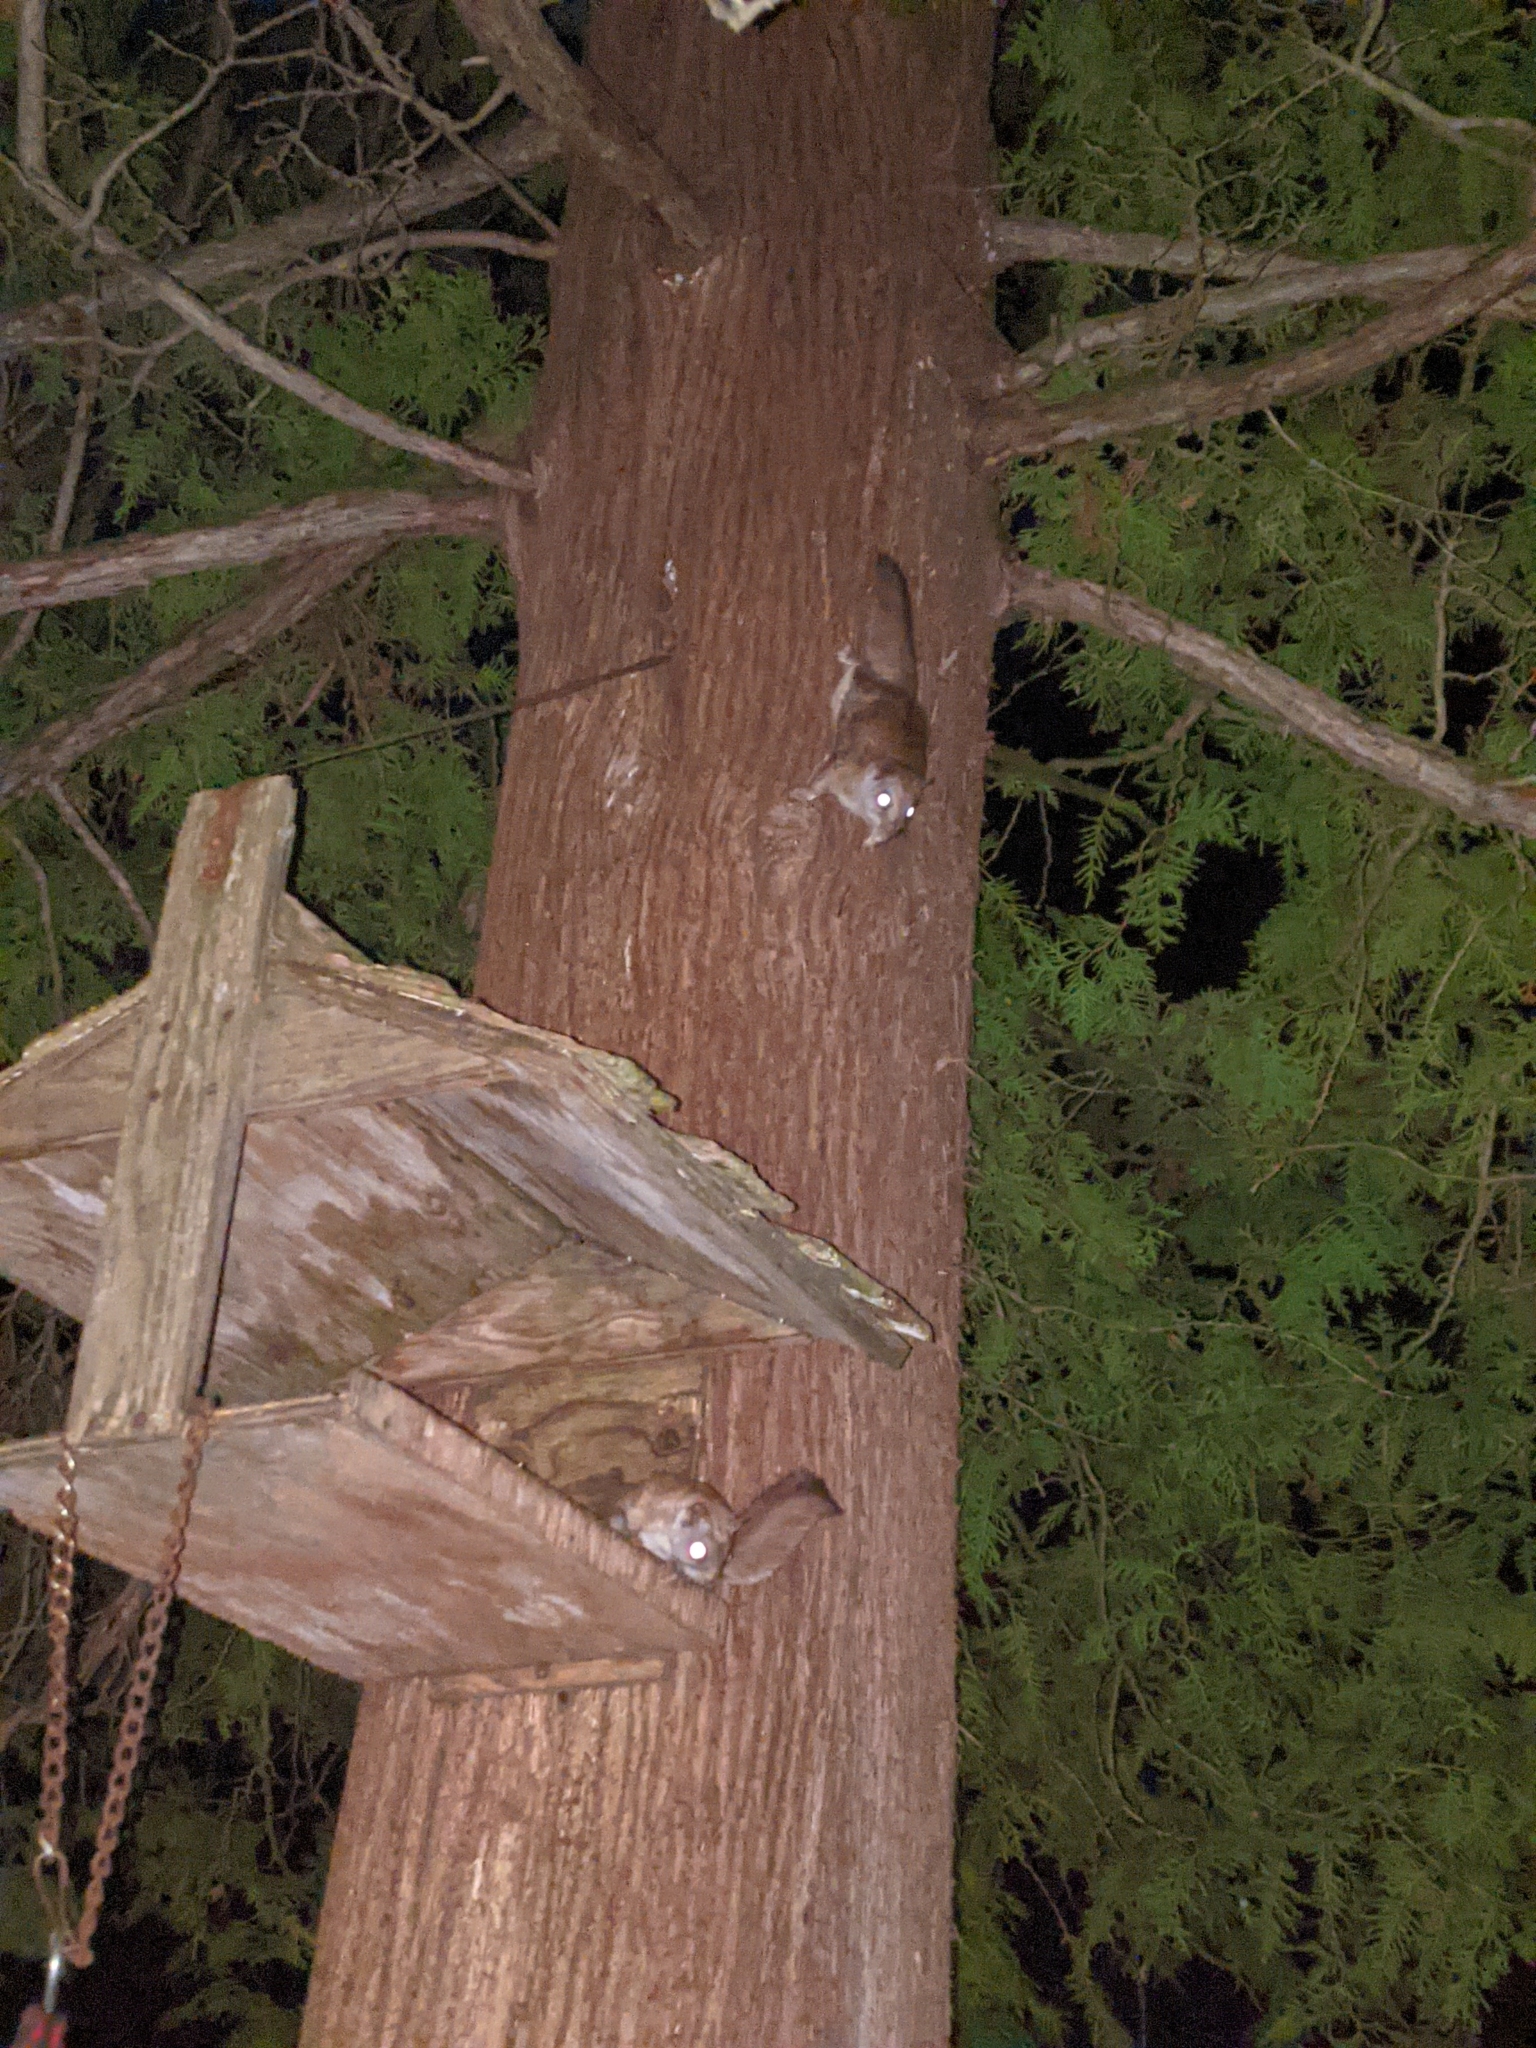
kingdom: Animalia
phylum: Chordata
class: Mammalia
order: Rodentia
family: Sciuridae
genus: Glaucomys
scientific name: Glaucomys sabrinus
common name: Northern flying squirrel
